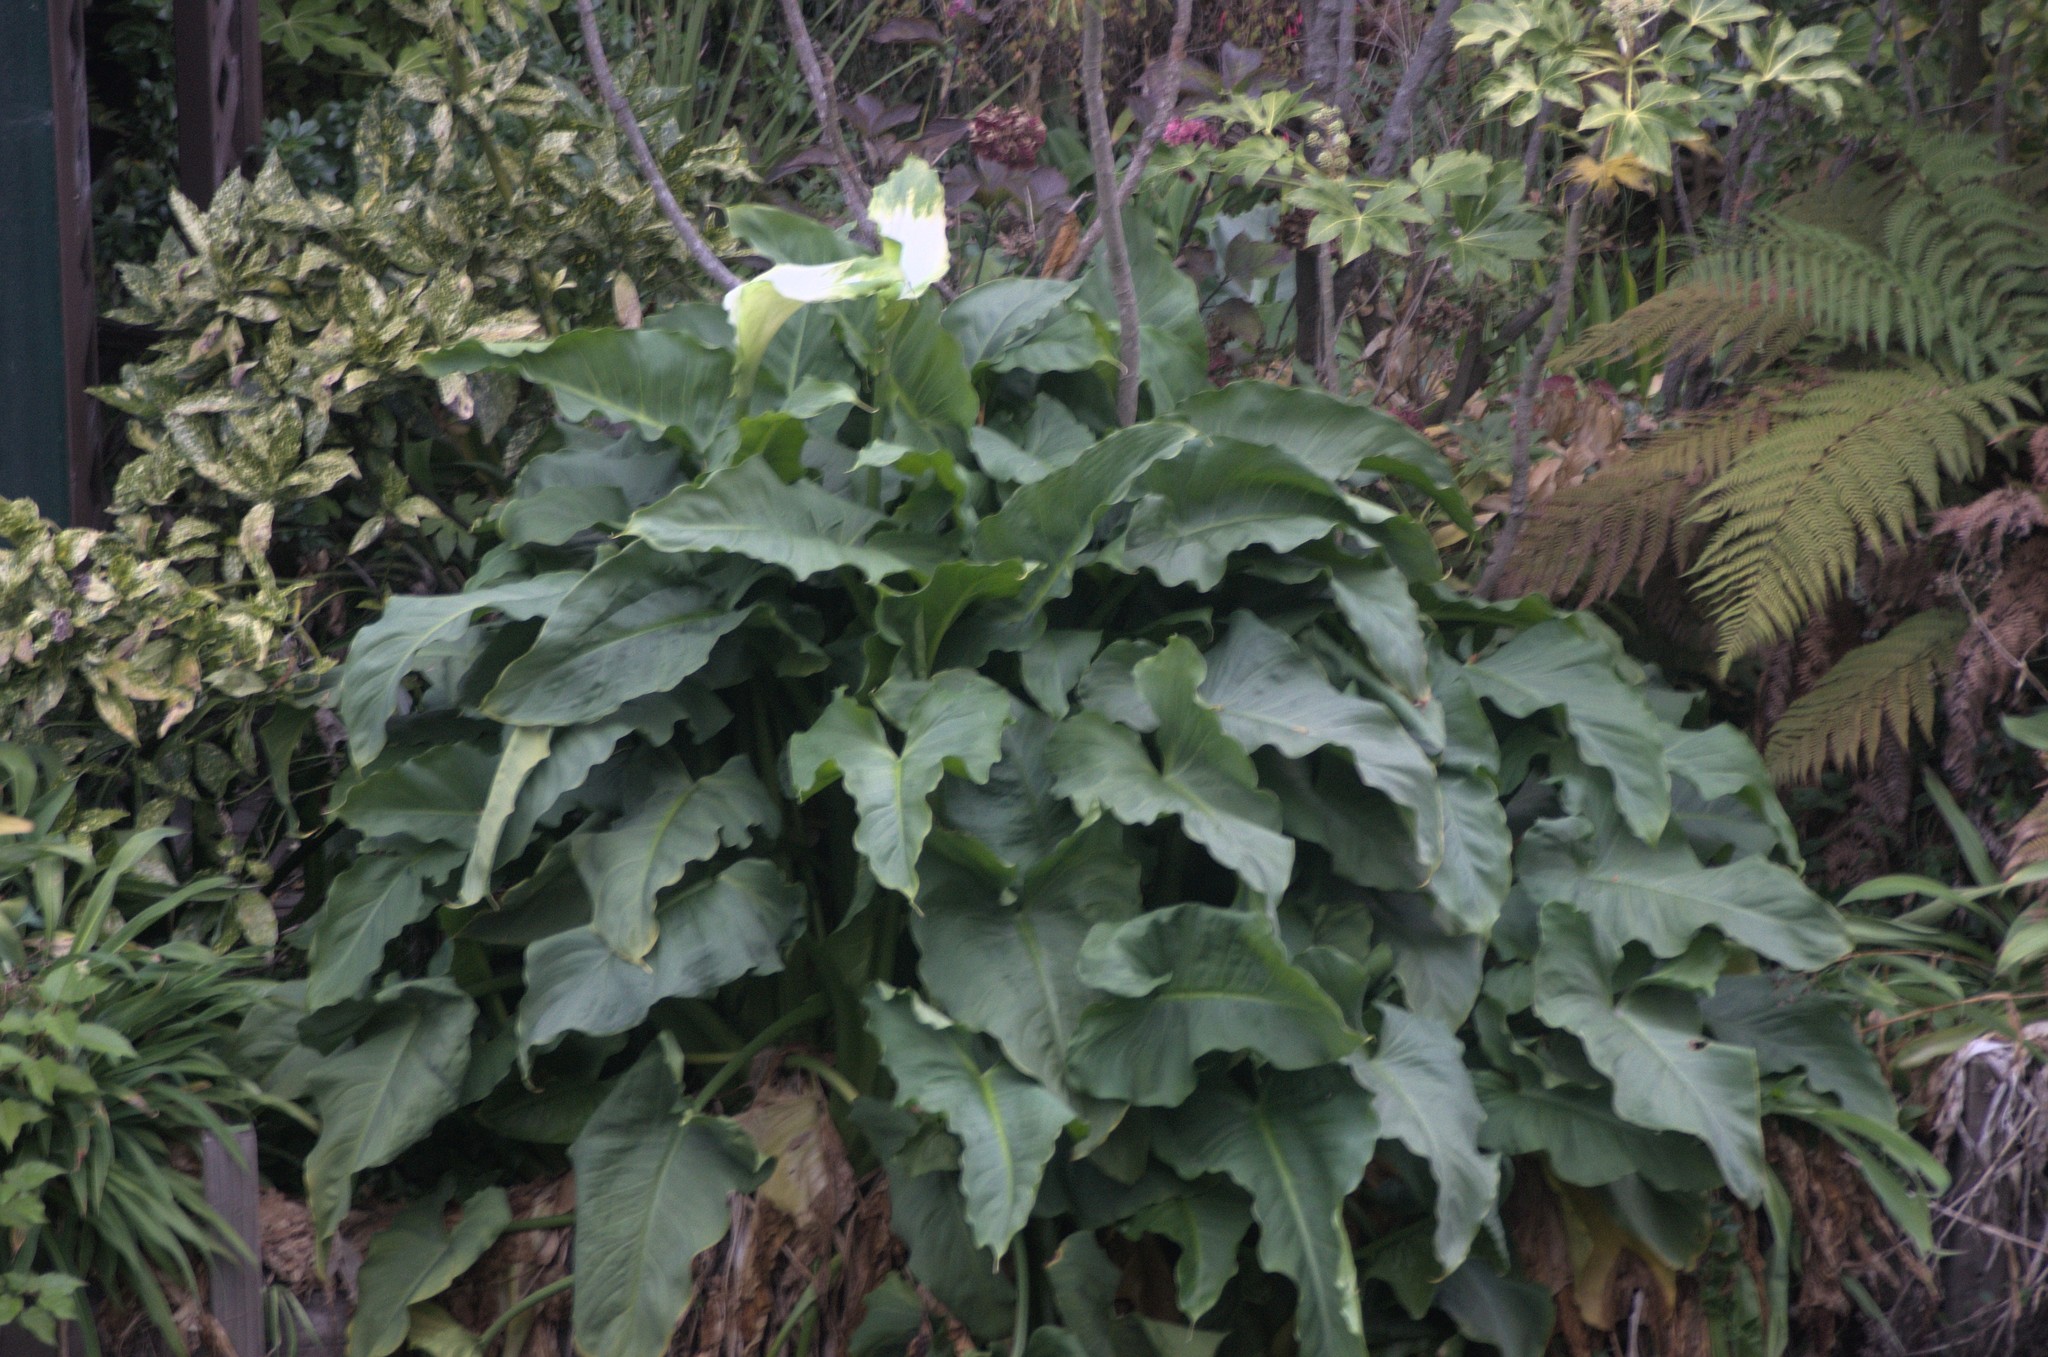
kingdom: Plantae
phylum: Tracheophyta
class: Liliopsida
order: Alismatales
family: Araceae
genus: Zantedeschia
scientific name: Zantedeschia aethiopica
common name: Altar-lily
